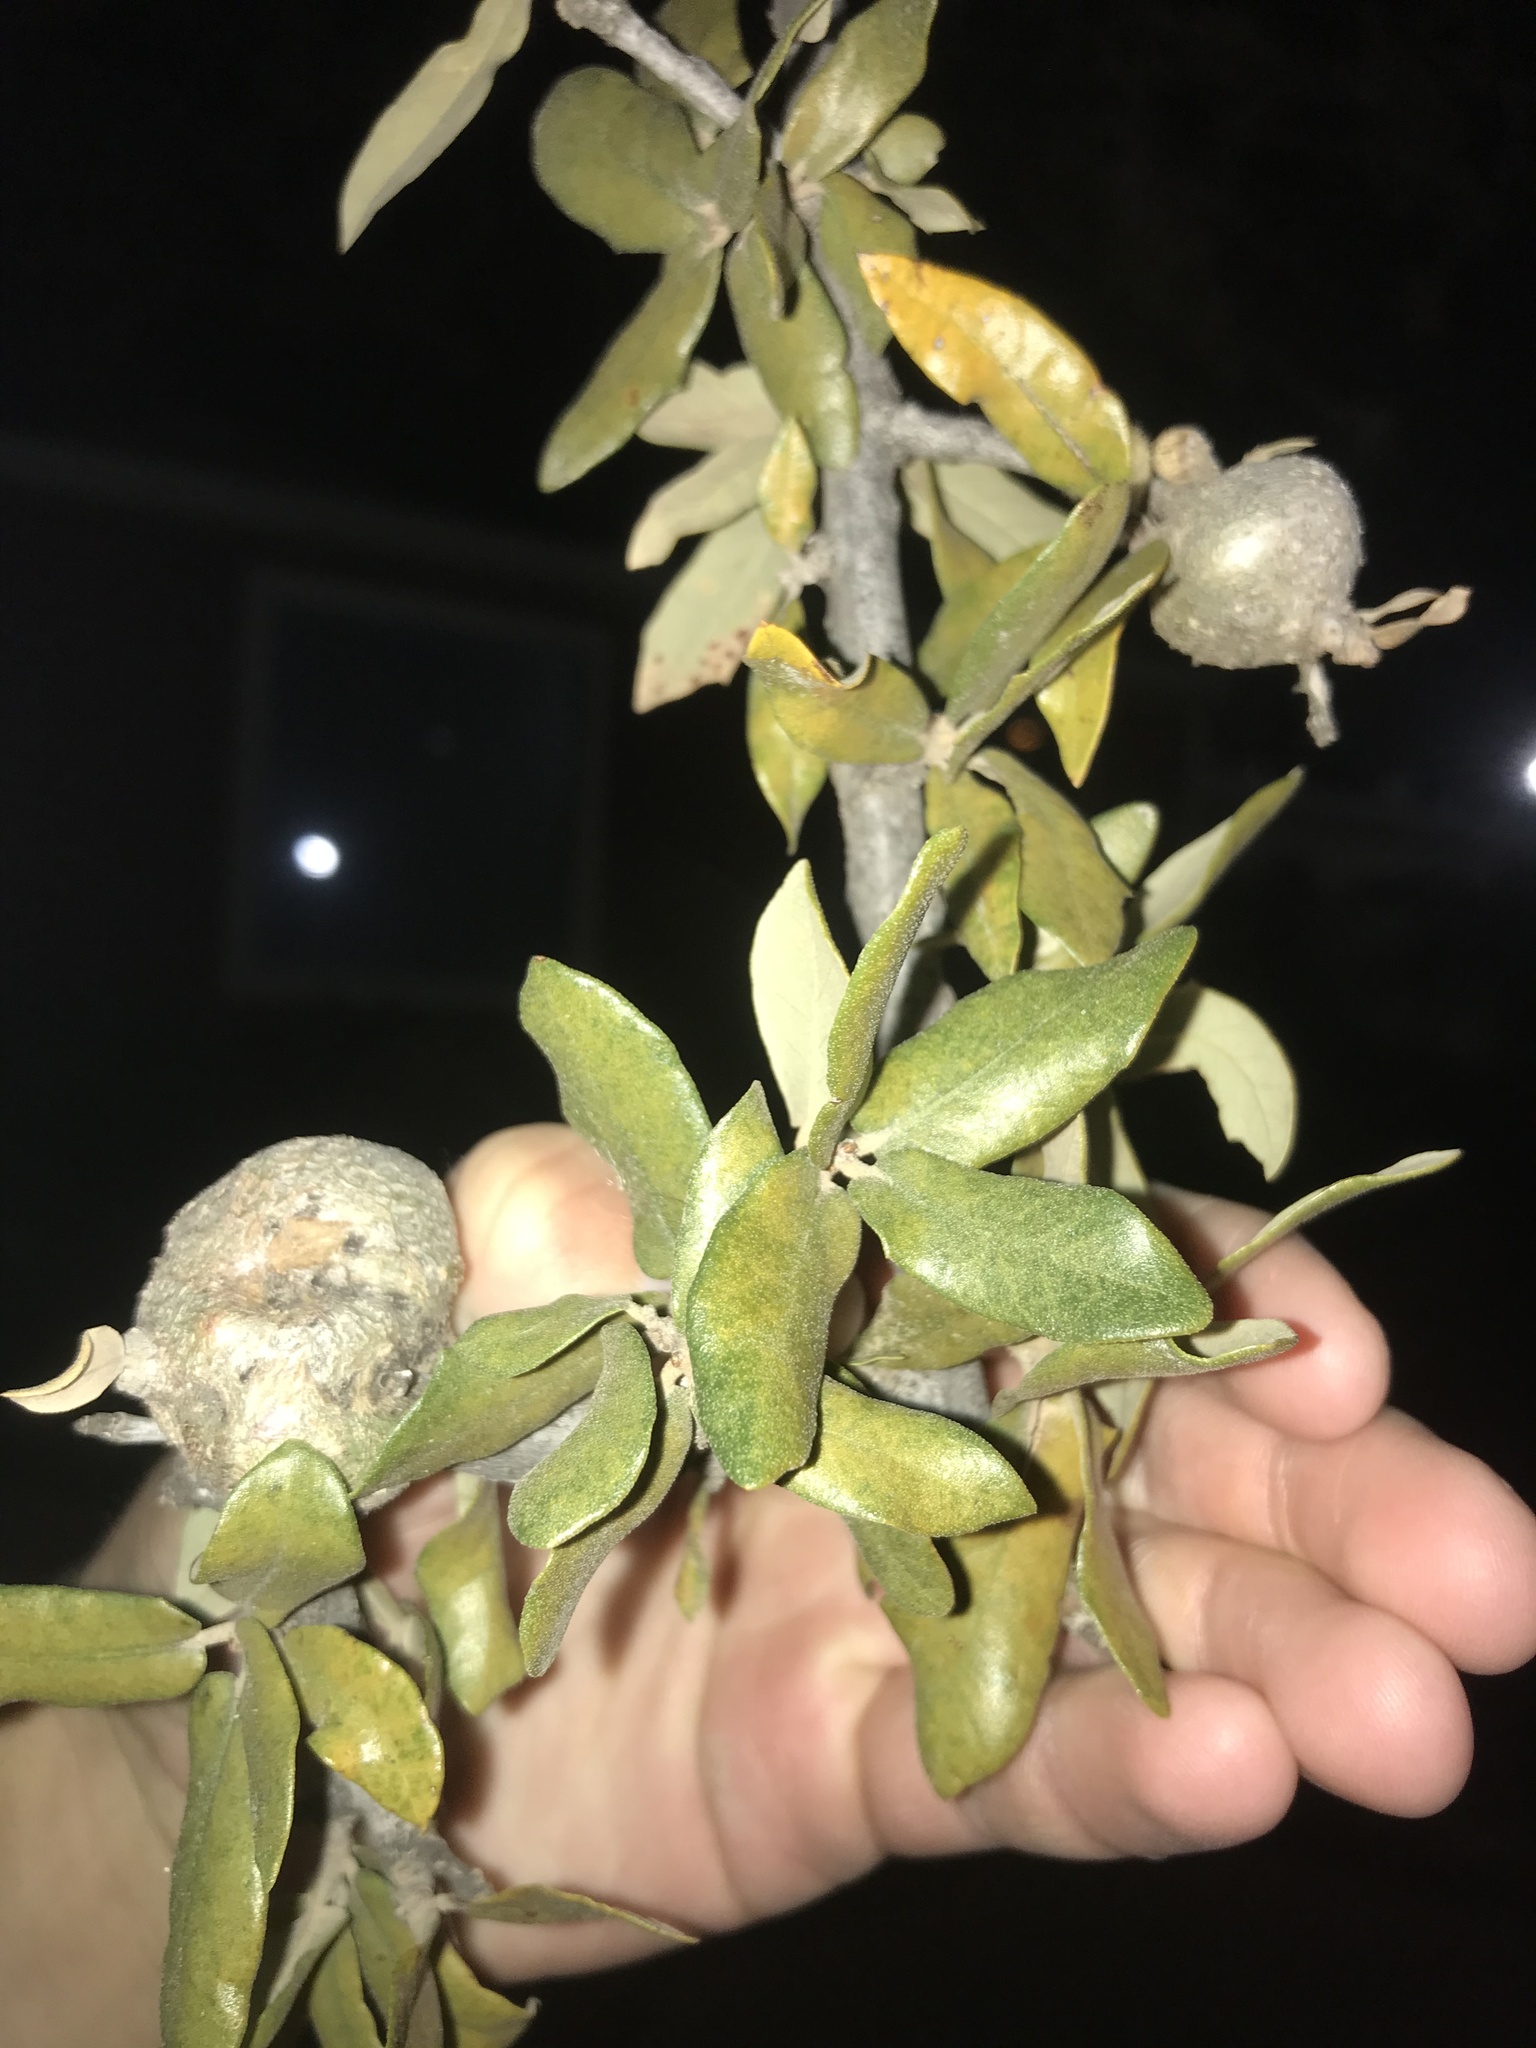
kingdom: Animalia
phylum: Arthropoda
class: Insecta
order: Hymenoptera
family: Cynipidae
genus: Callirhytis
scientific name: Callirhytis
